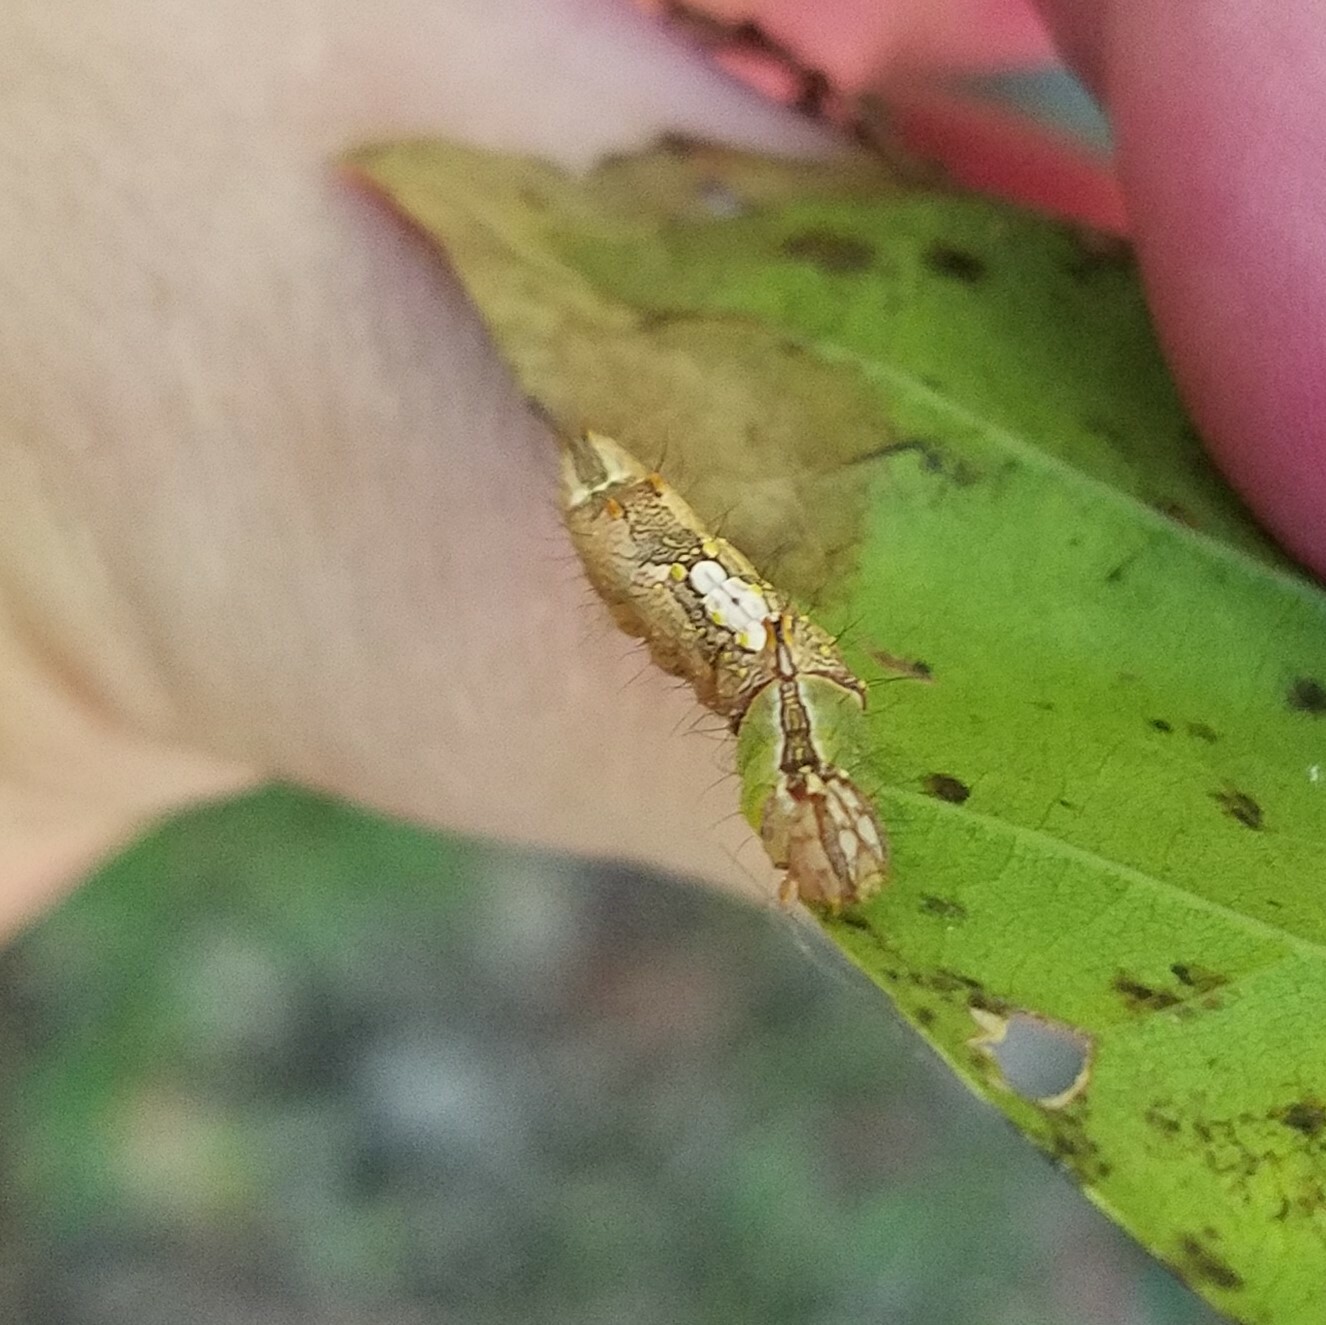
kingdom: Animalia
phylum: Arthropoda
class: Insecta
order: Lepidoptera
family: Notodontidae
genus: Schizura
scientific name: Schizura ipomaeae
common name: Morning-glory prominent
